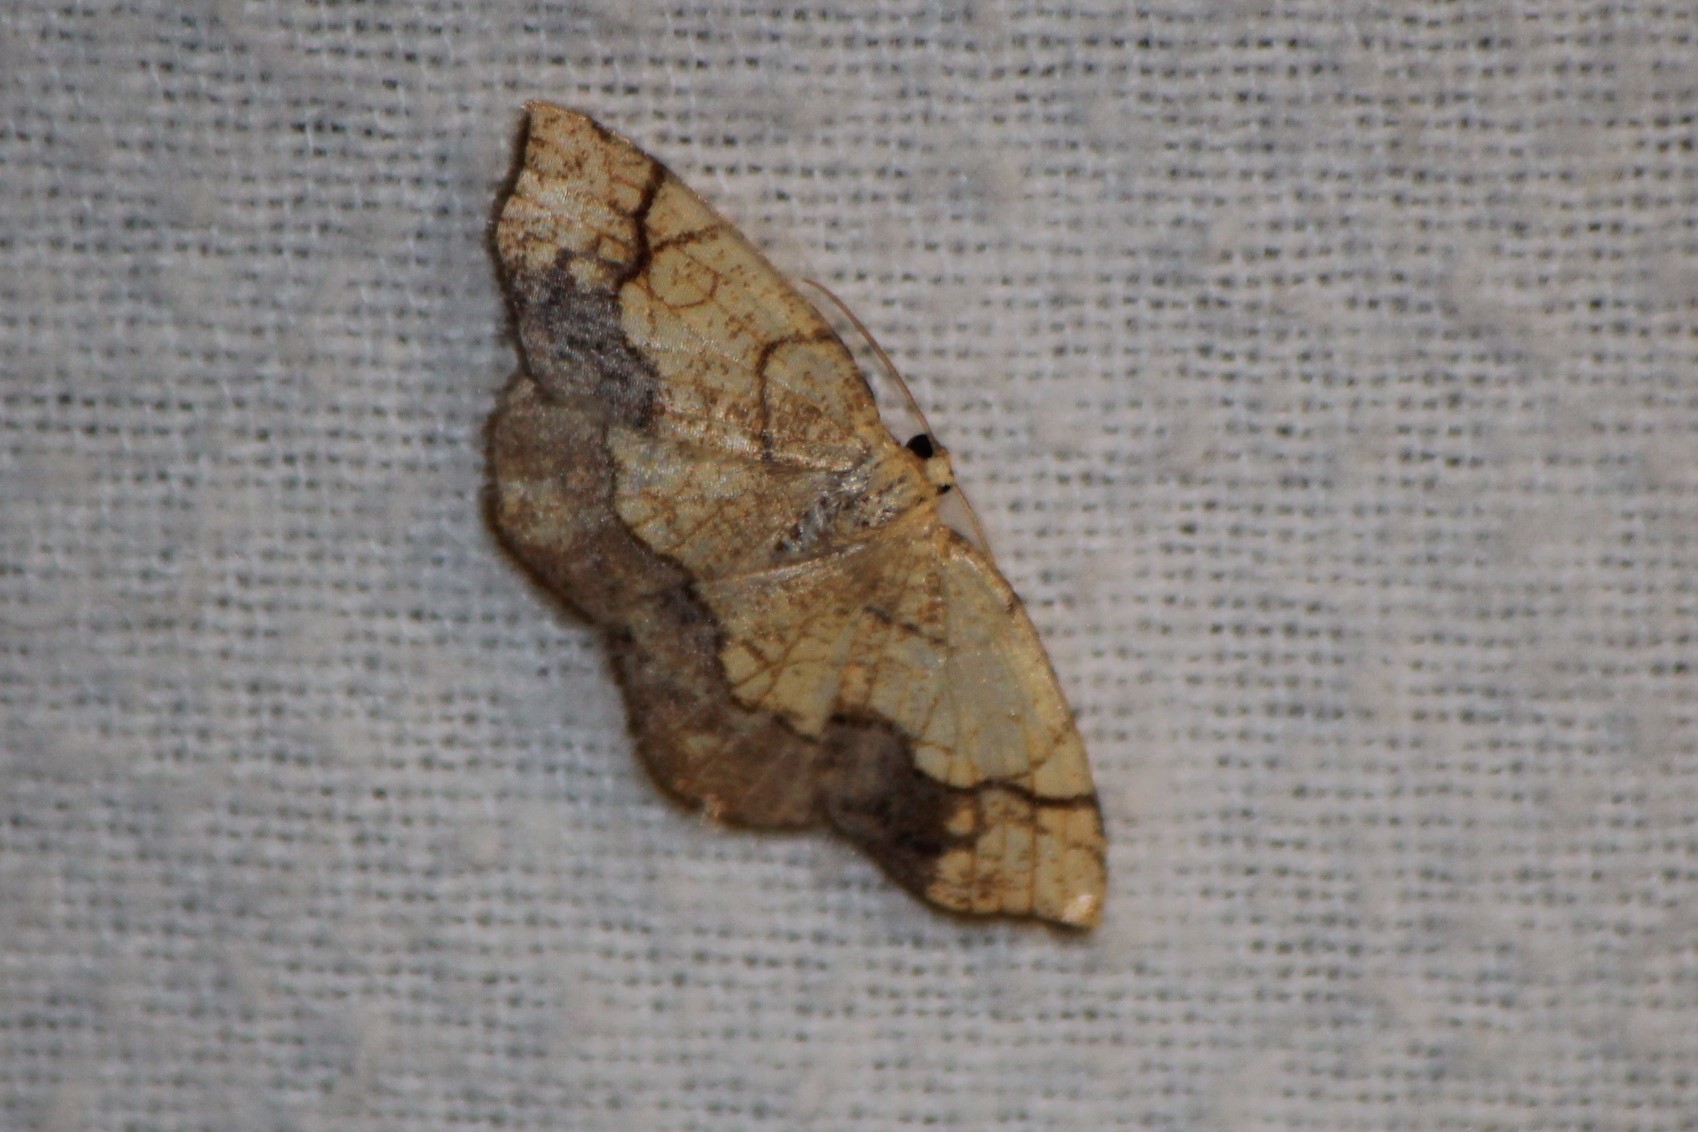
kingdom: Animalia
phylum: Arthropoda
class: Insecta
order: Lepidoptera
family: Geometridae
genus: Nematocampa
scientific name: Nematocampa resistaria
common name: Horned spanworm moth
